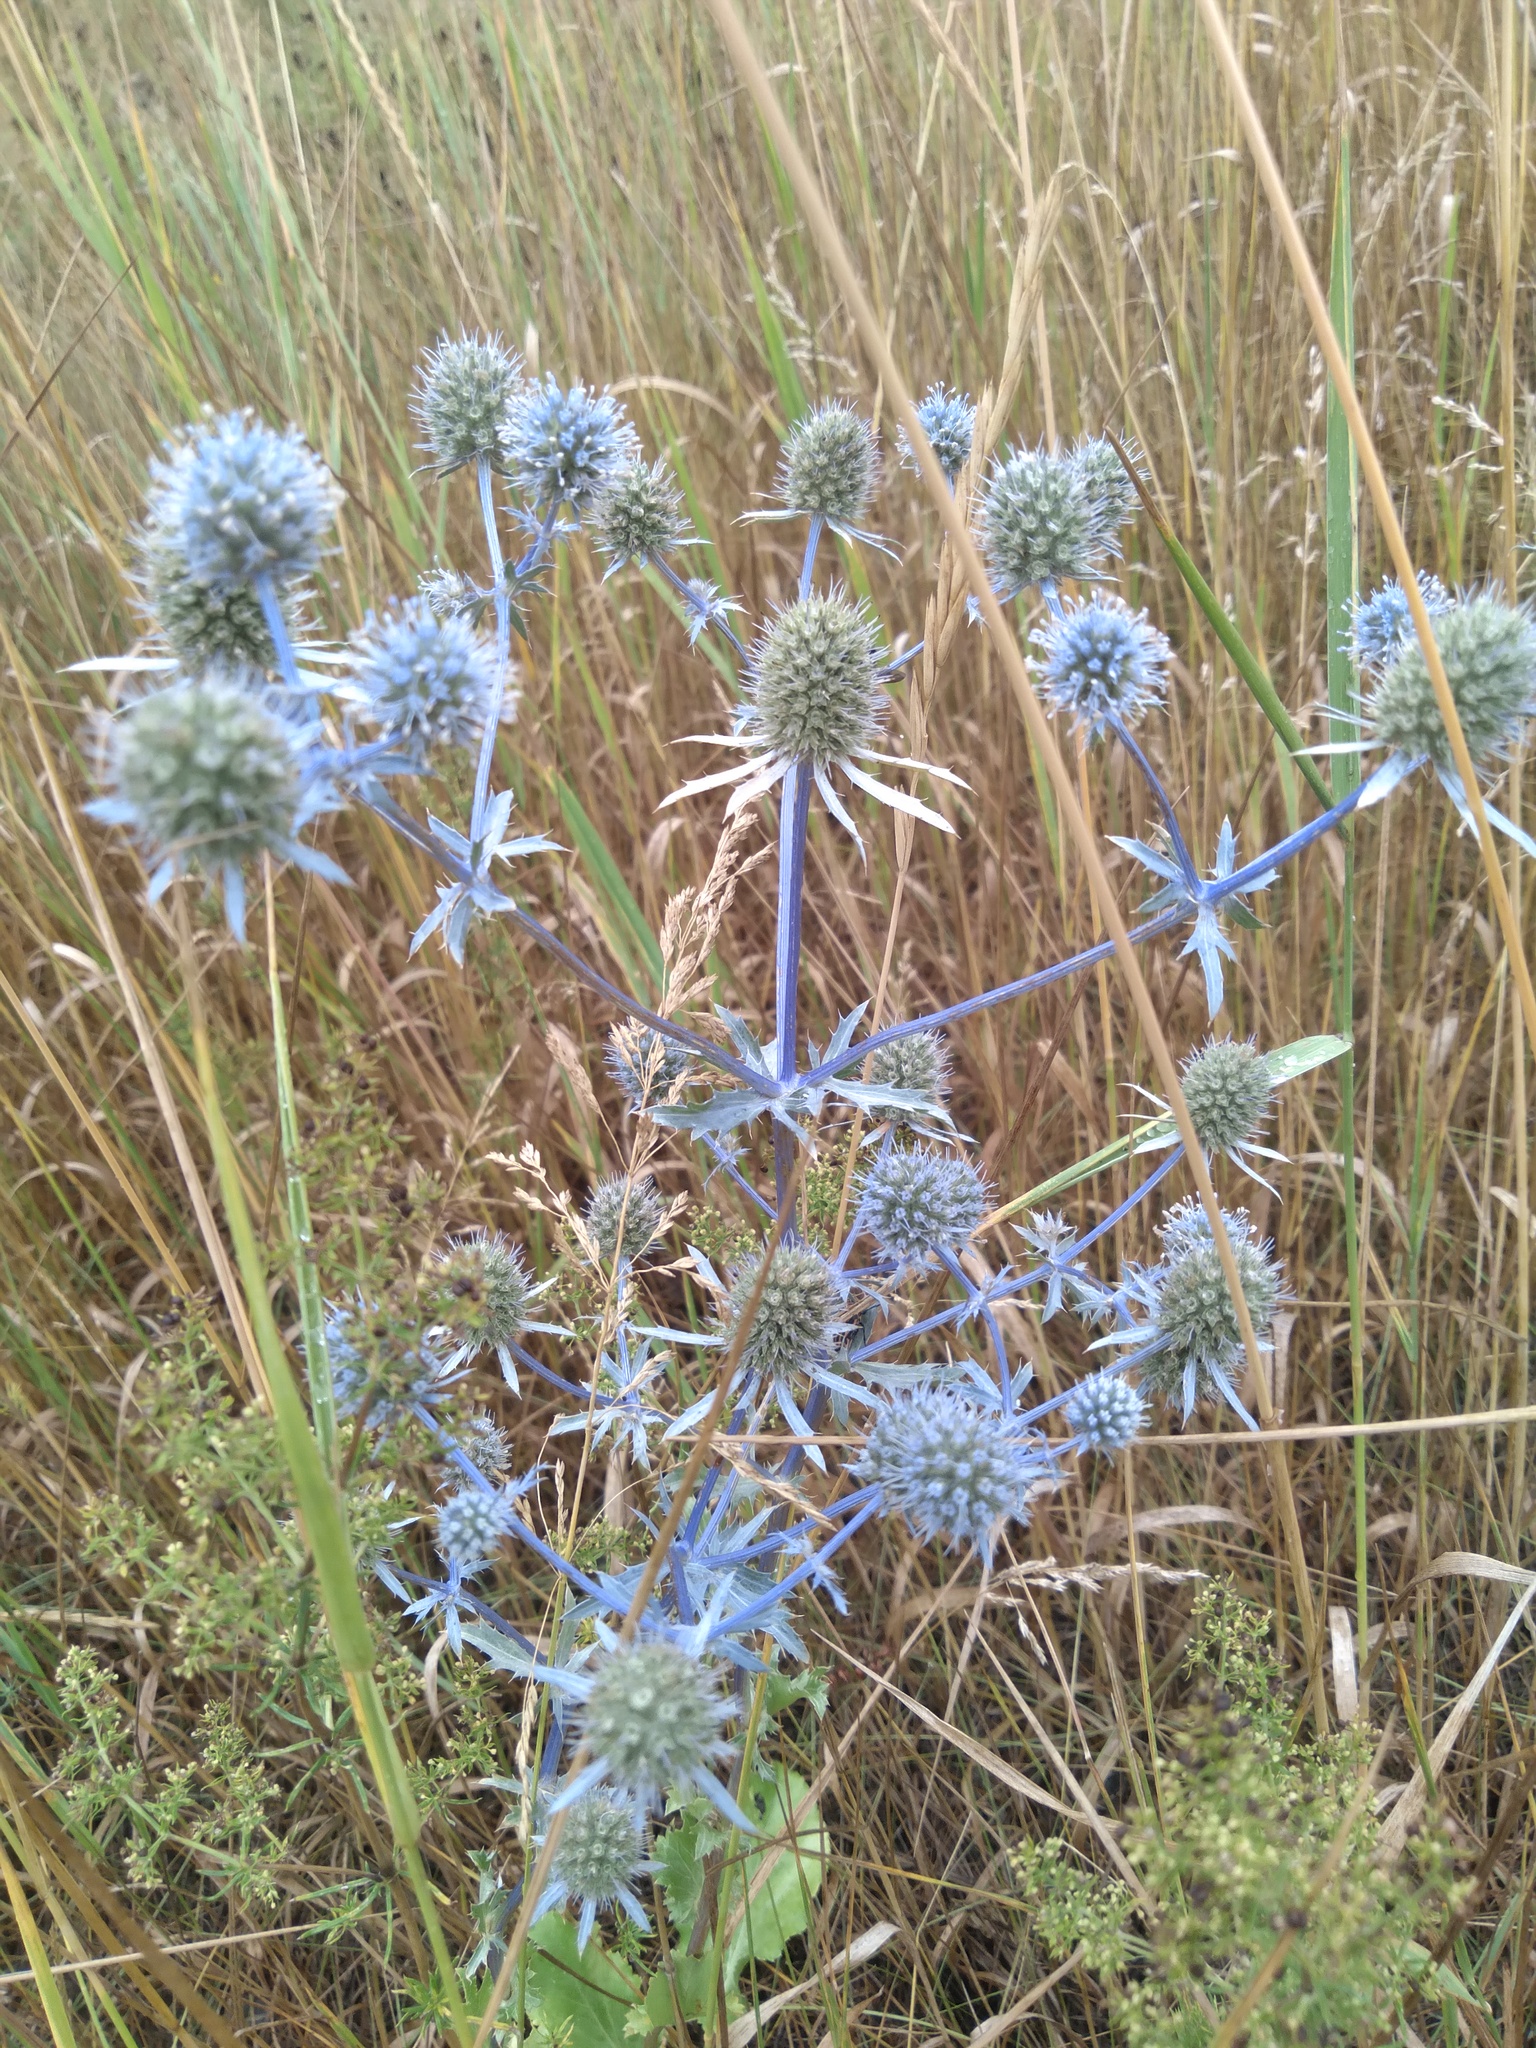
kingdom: Plantae
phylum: Tracheophyta
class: Magnoliopsida
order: Apiales
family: Apiaceae
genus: Eryngium
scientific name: Eryngium planum
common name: Blue eryngo
